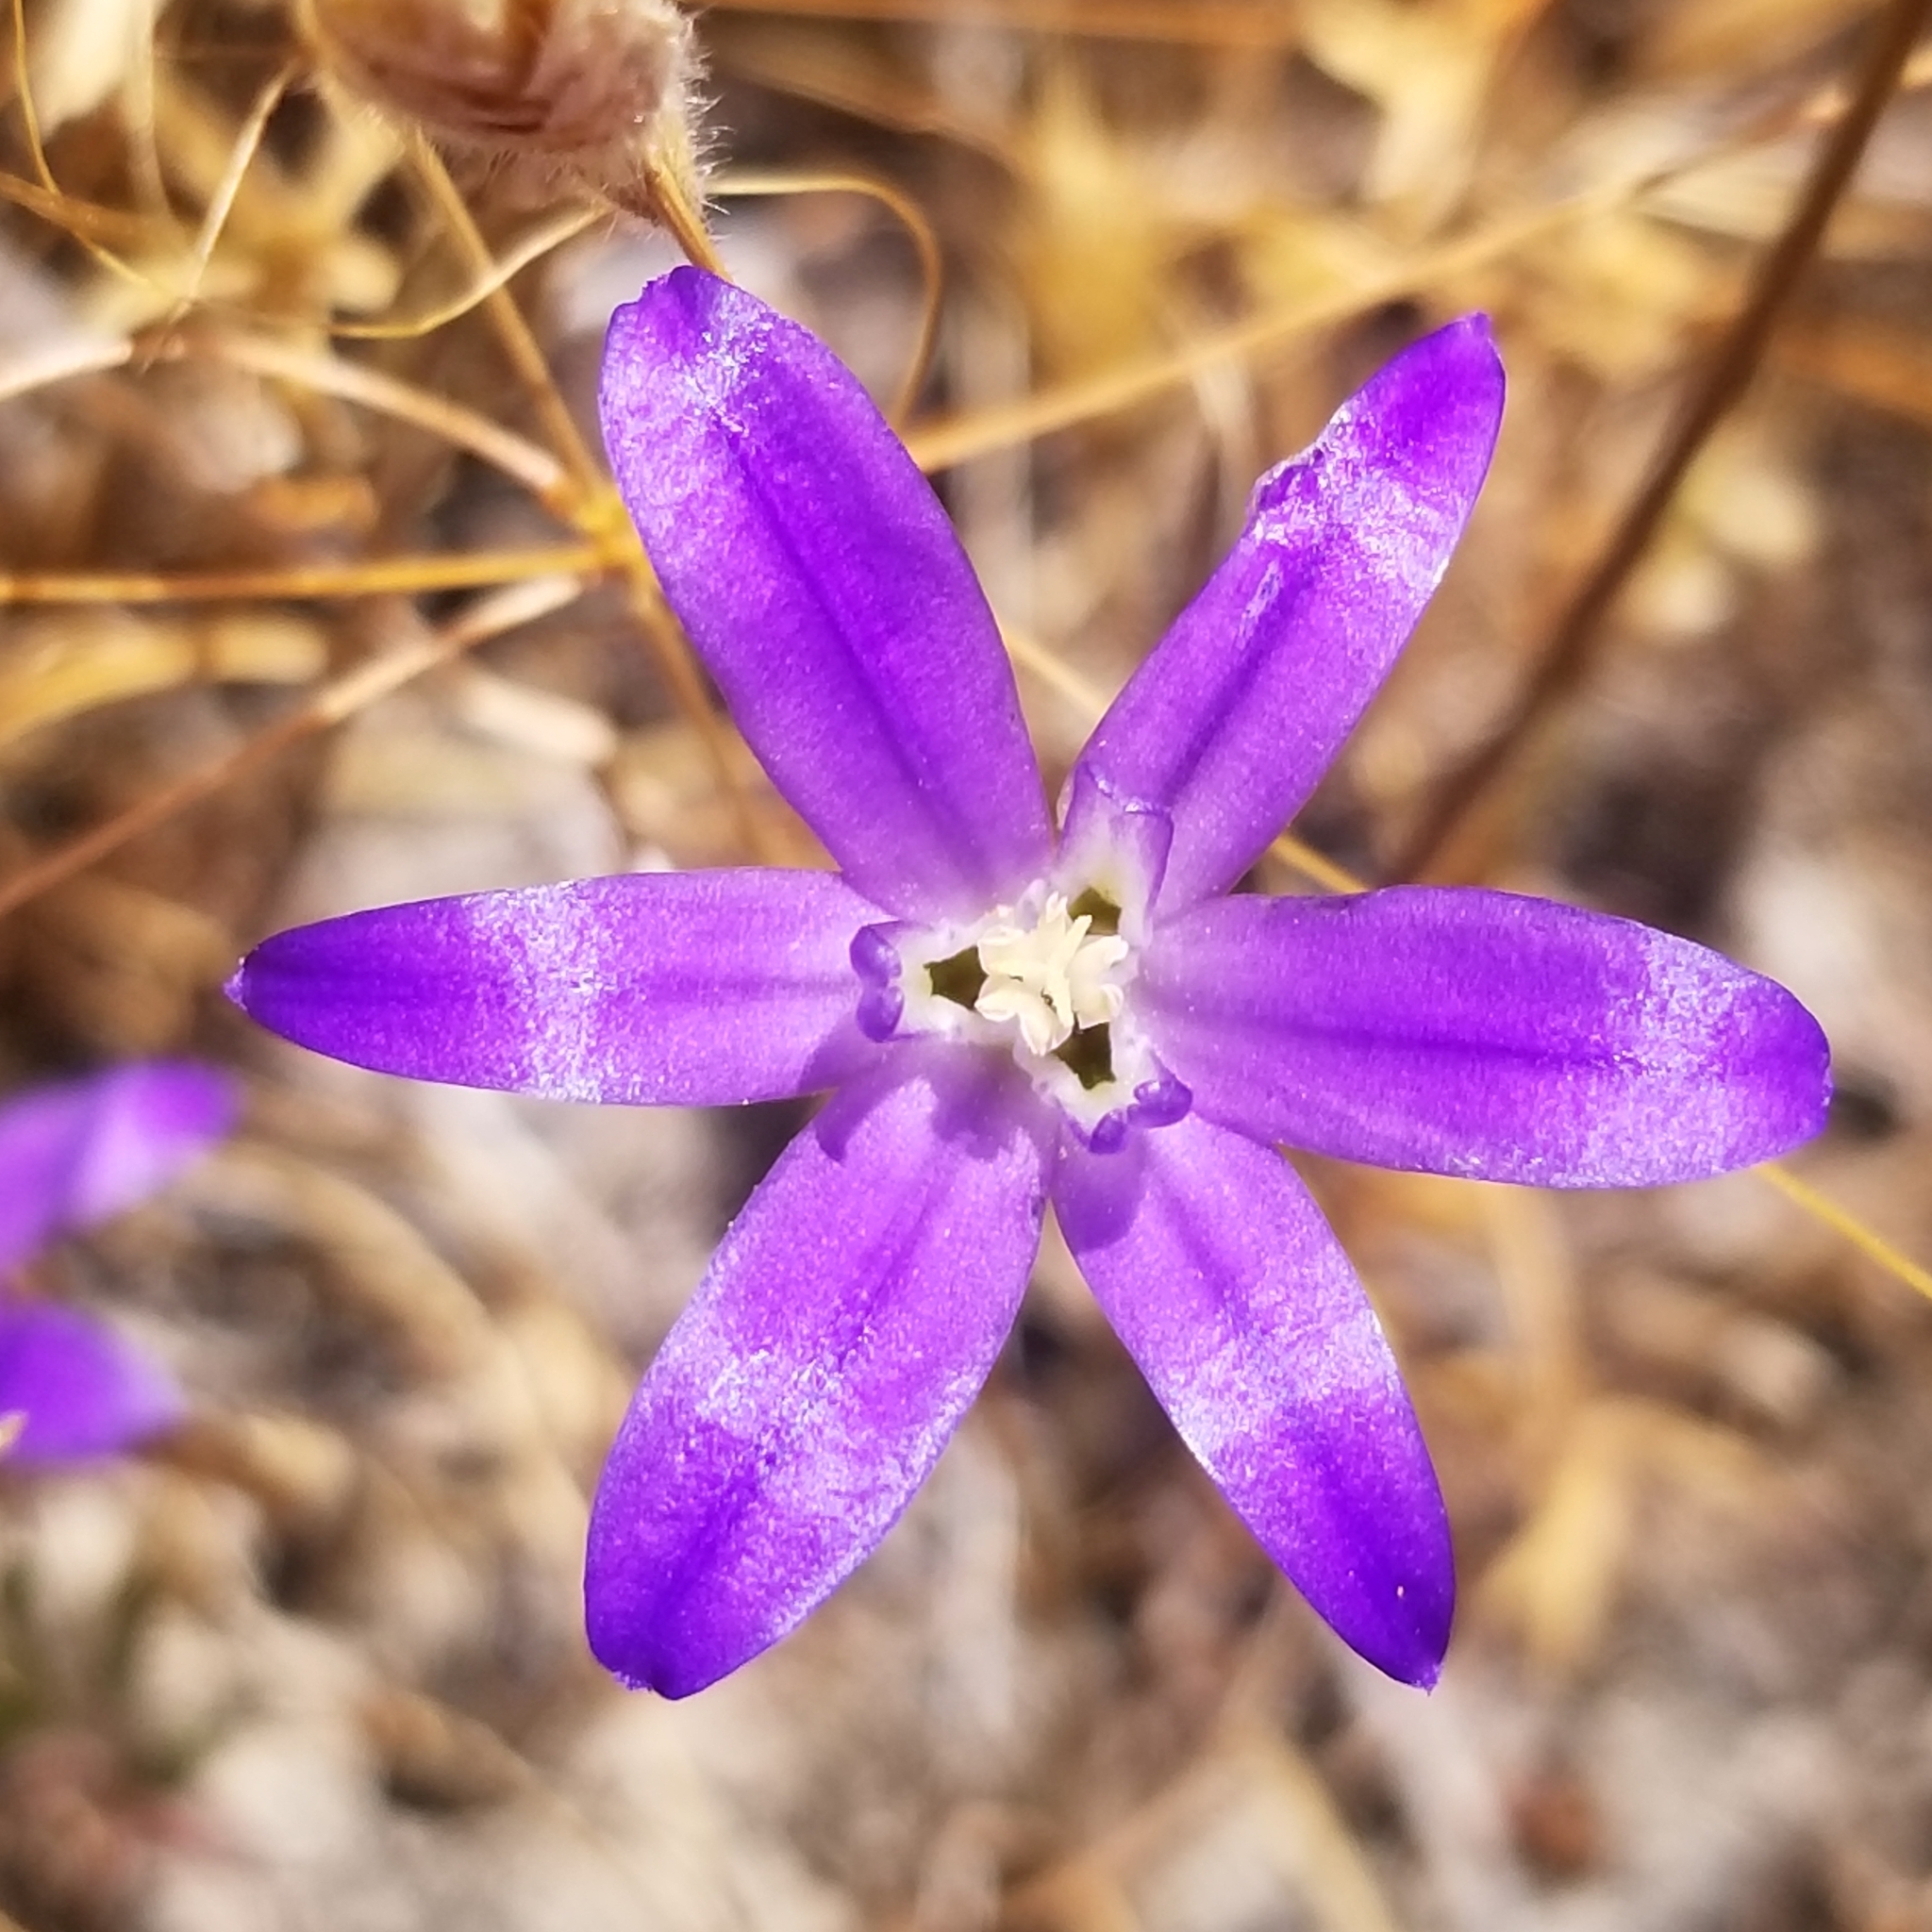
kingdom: Plantae
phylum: Tracheophyta
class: Liliopsida
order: Asparagales
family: Asparagaceae
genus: Brodiaea
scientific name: Brodiaea terrestris
